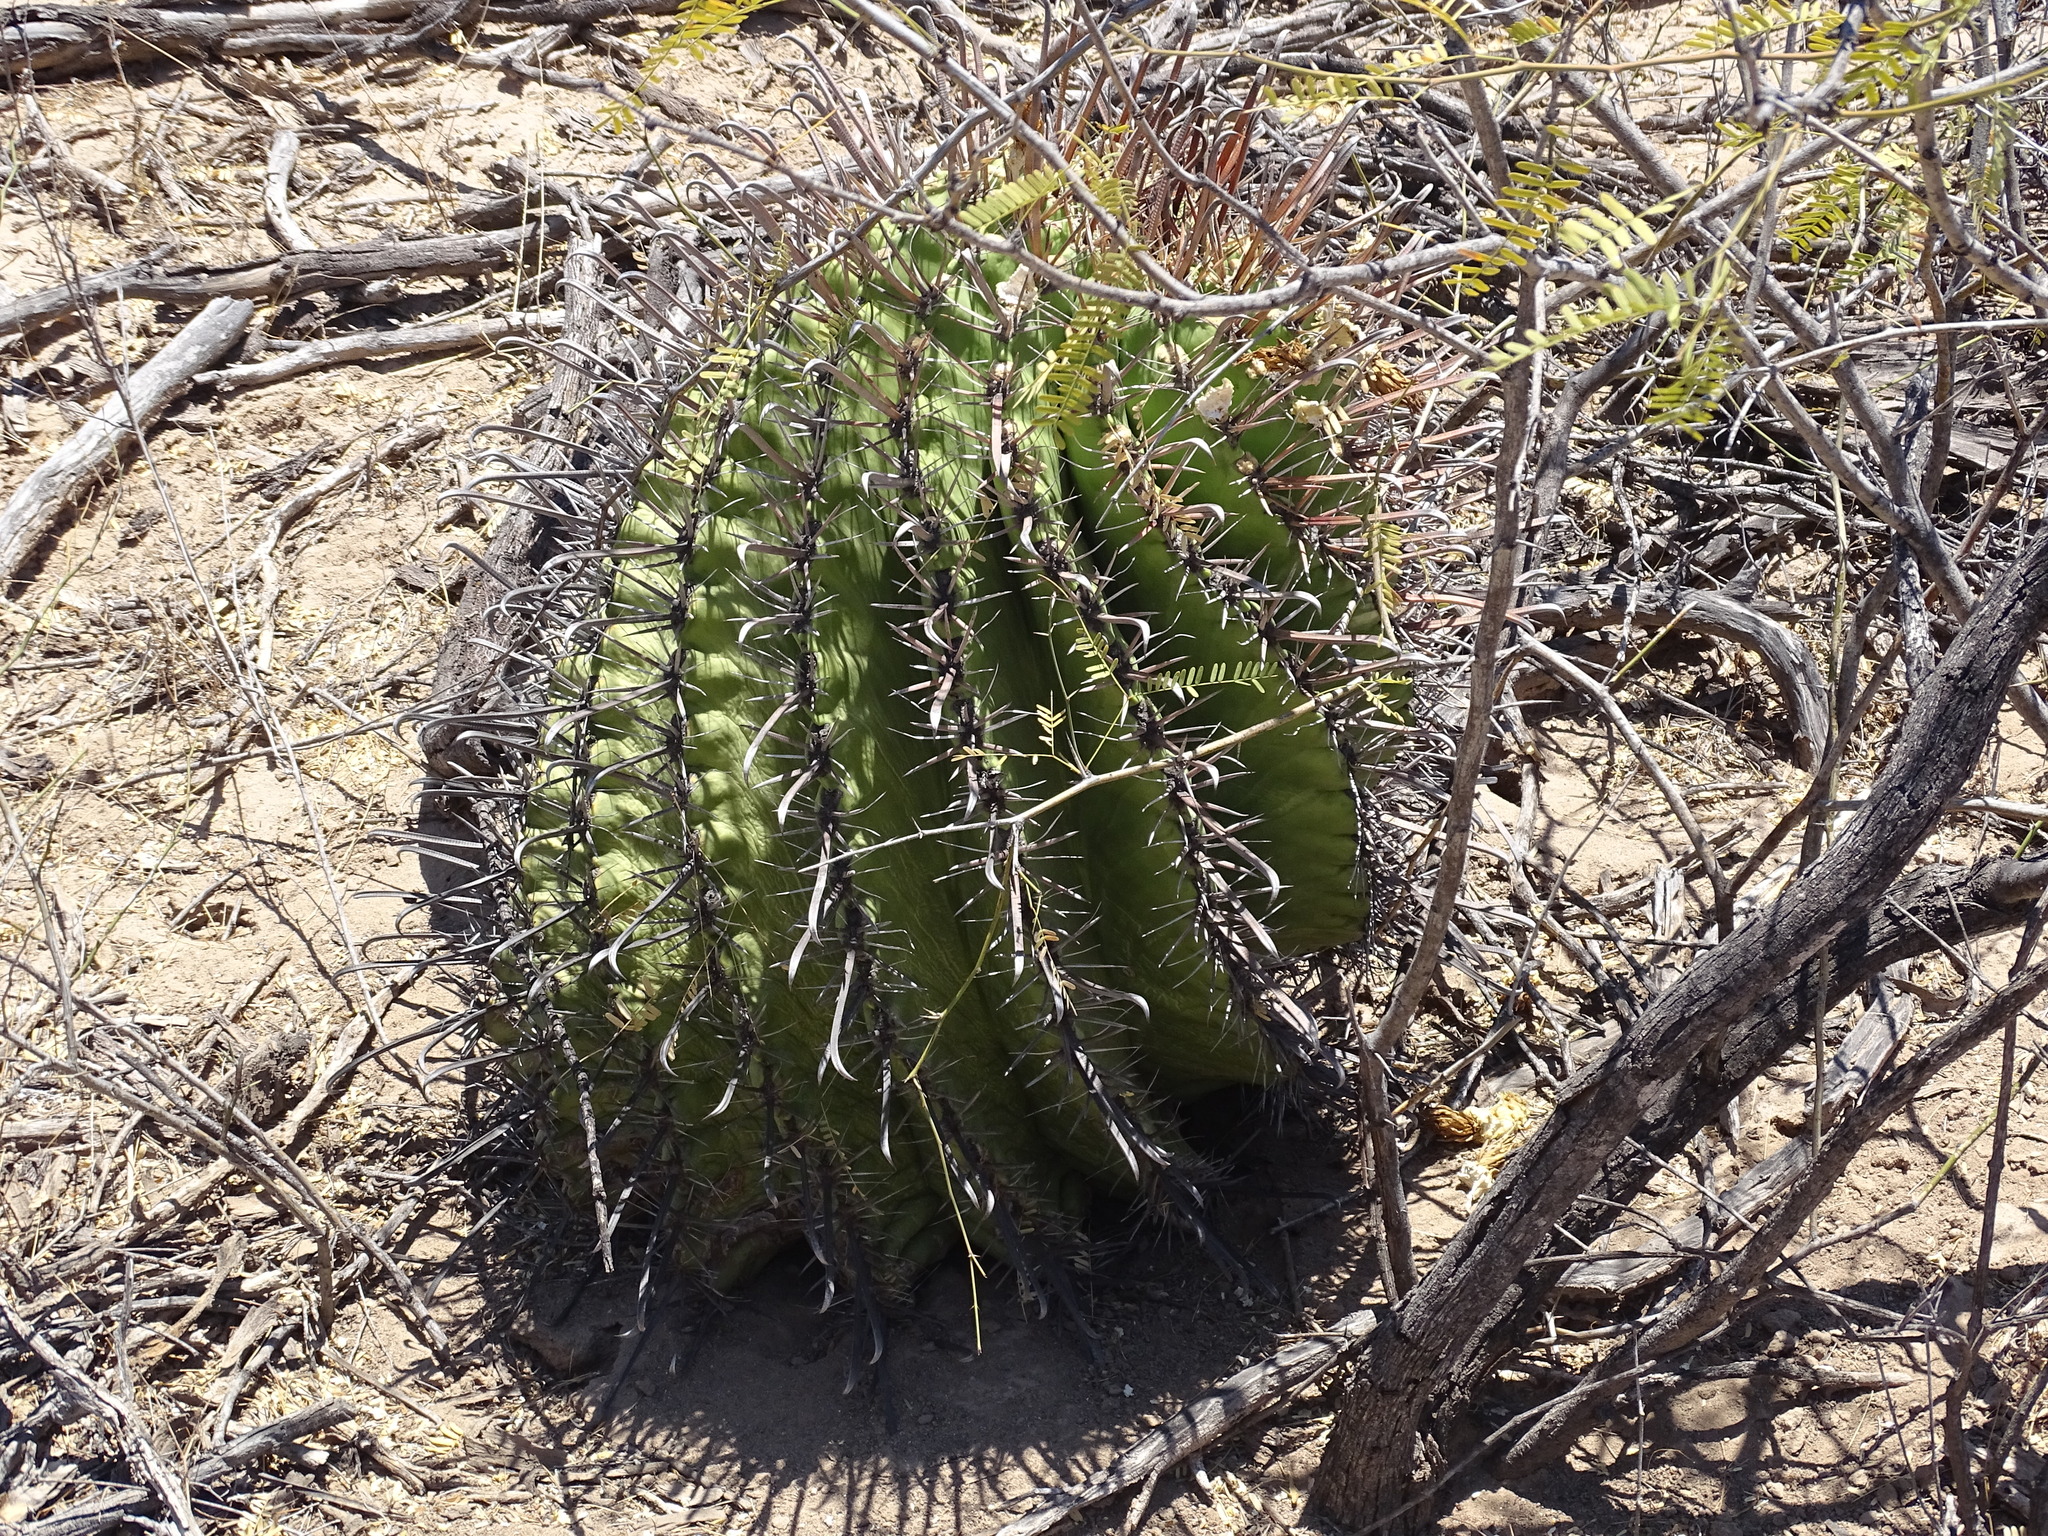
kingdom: Plantae
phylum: Tracheophyta
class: Magnoliopsida
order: Caryophyllales
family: Cactaceae
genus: Ferocactus
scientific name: Ferocactus wislizeni
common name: Candy barrel cactus
